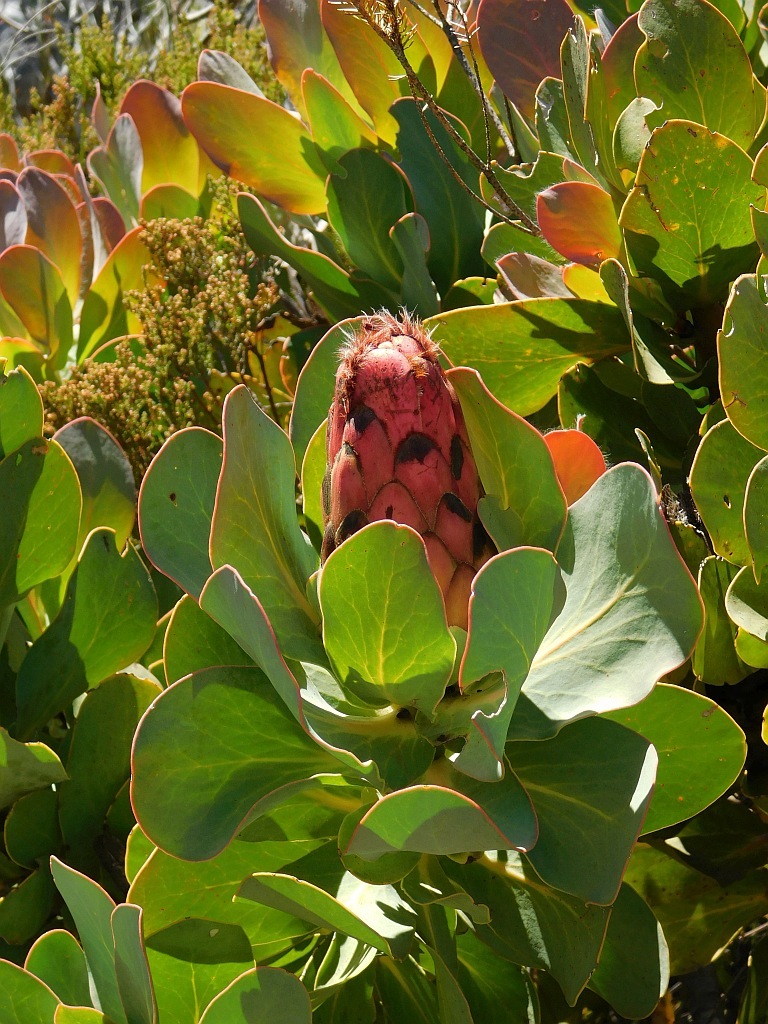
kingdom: Plantae
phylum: Tracheophyta
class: Magnoliopsida
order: Proteales
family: Proteaceae
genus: Protea
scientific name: Protea grandiceps
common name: Red sugarbush
